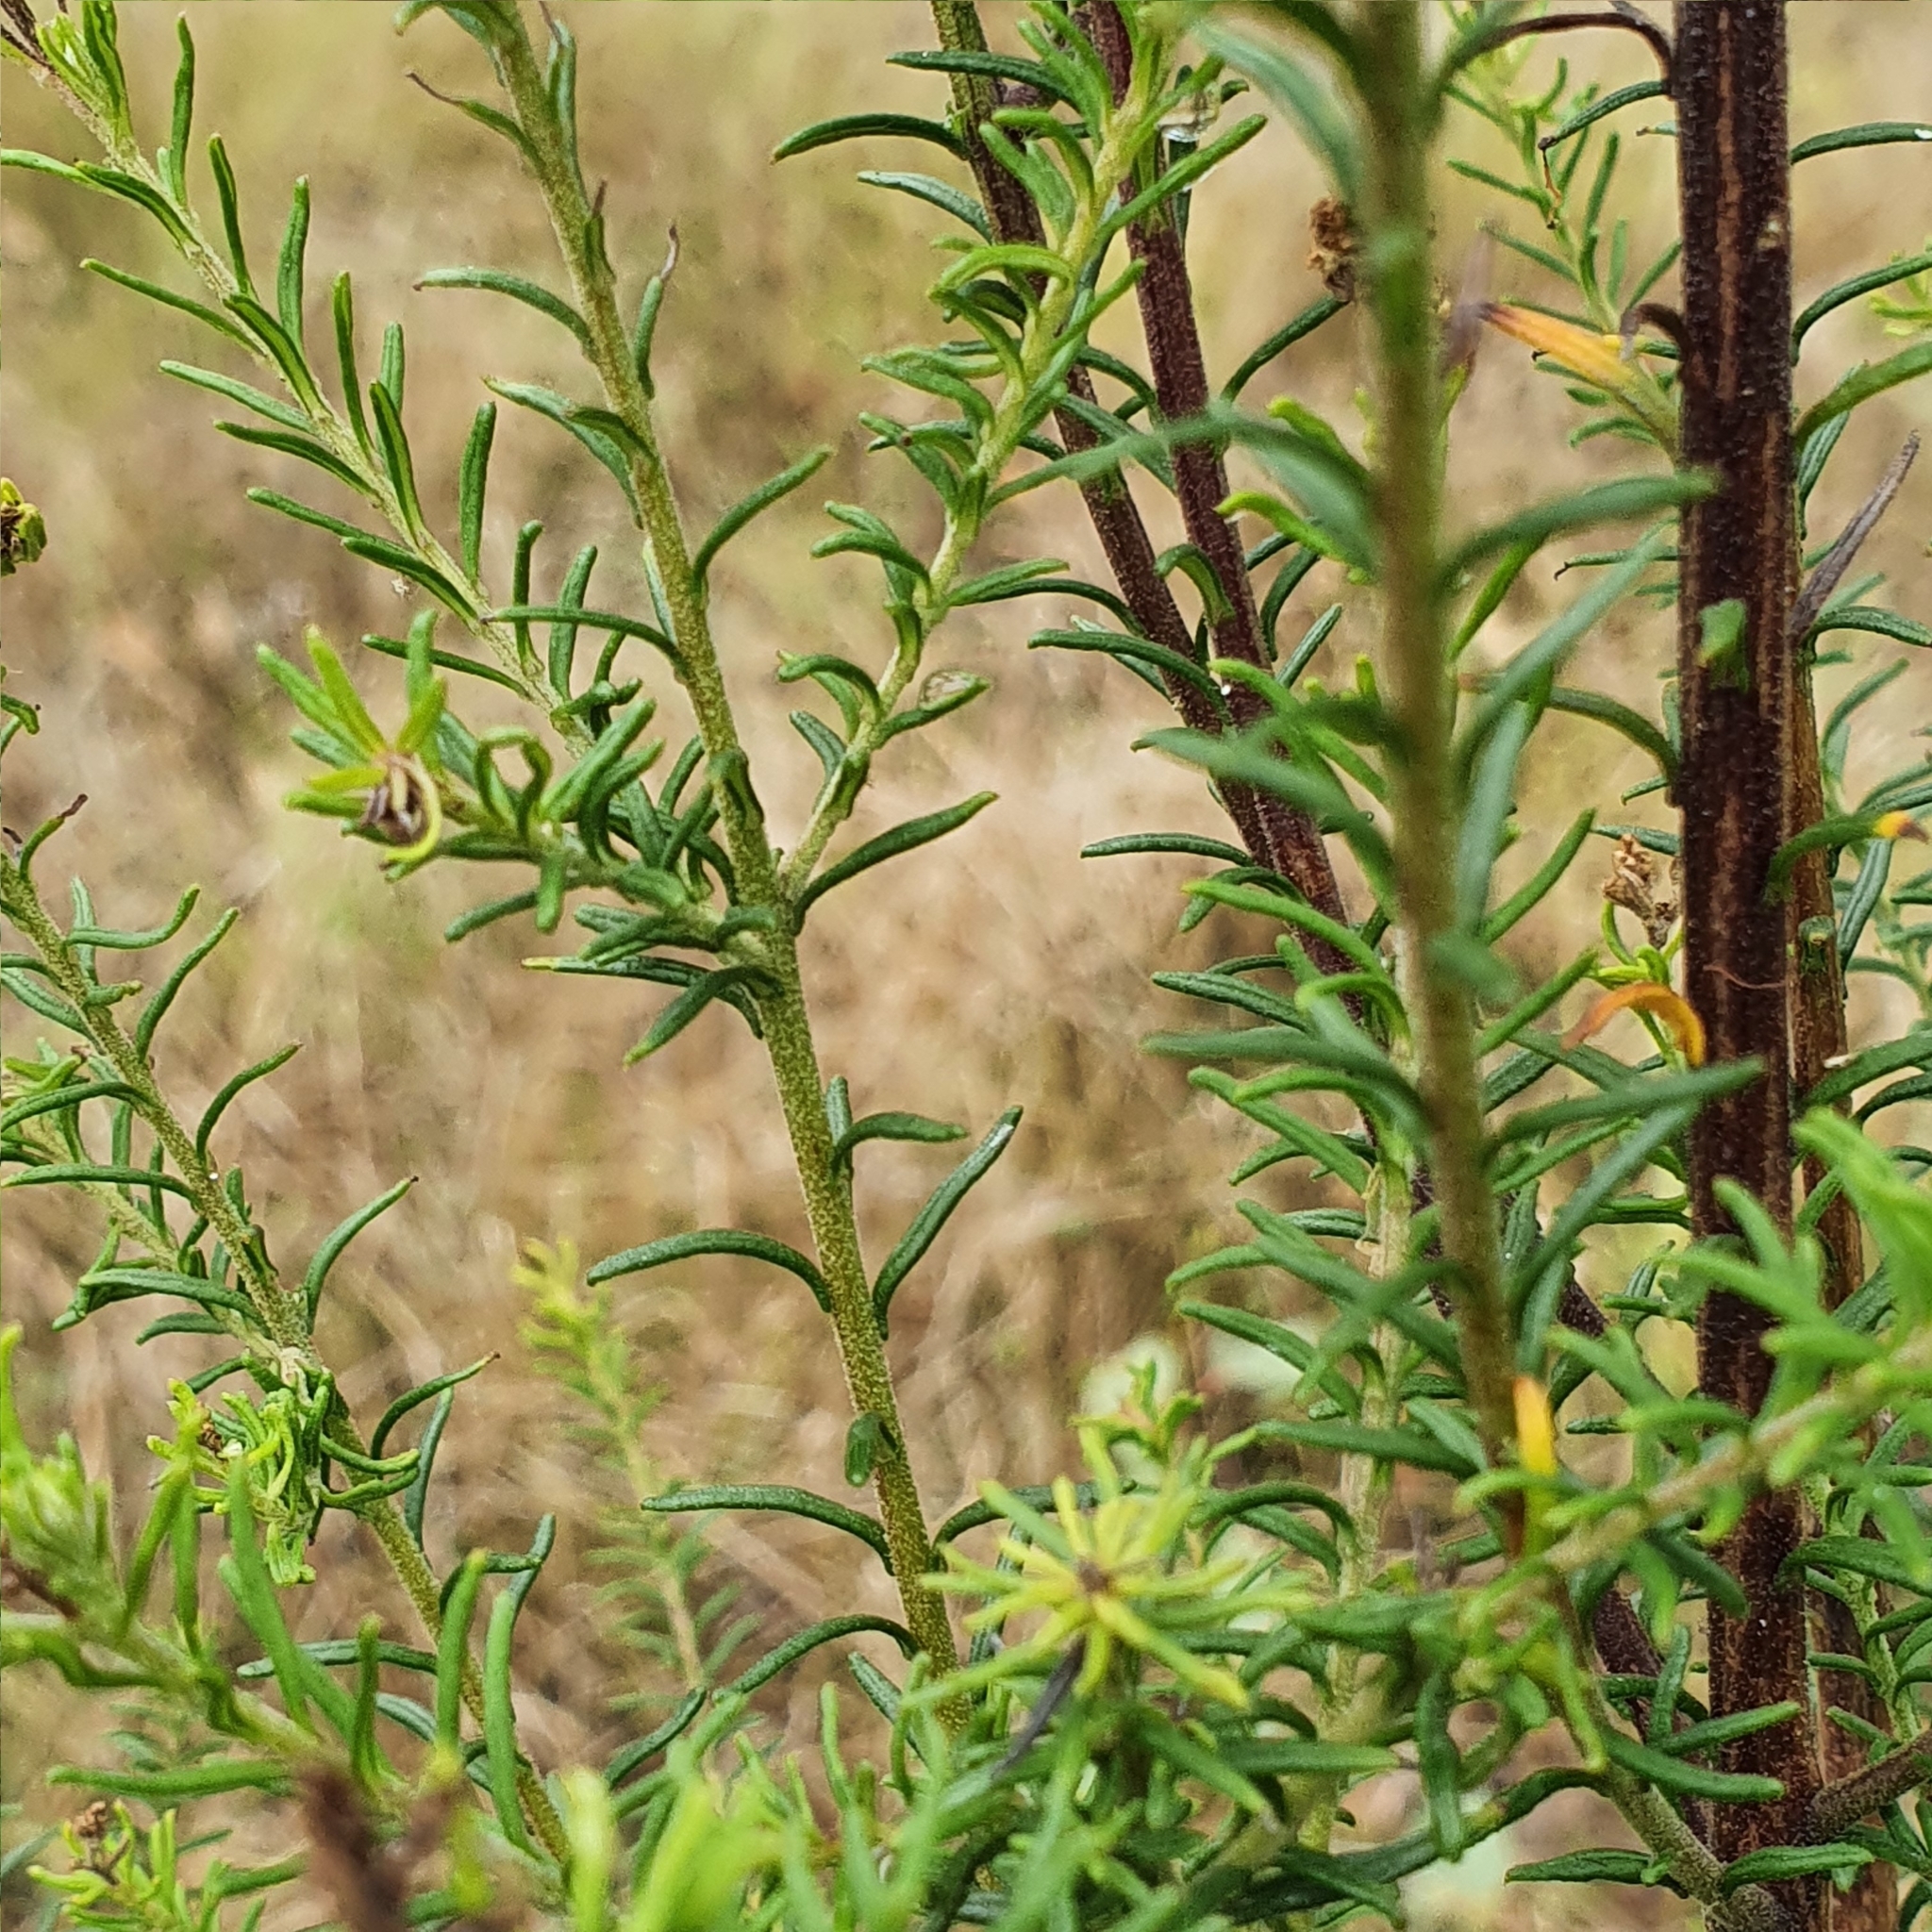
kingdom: Plantae
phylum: Tracheophyta
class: Magnoliopsida
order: Asterales
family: Asteraceae
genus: Ozothamnus
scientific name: Ozothamnus diosmifolius
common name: White-dogwood
